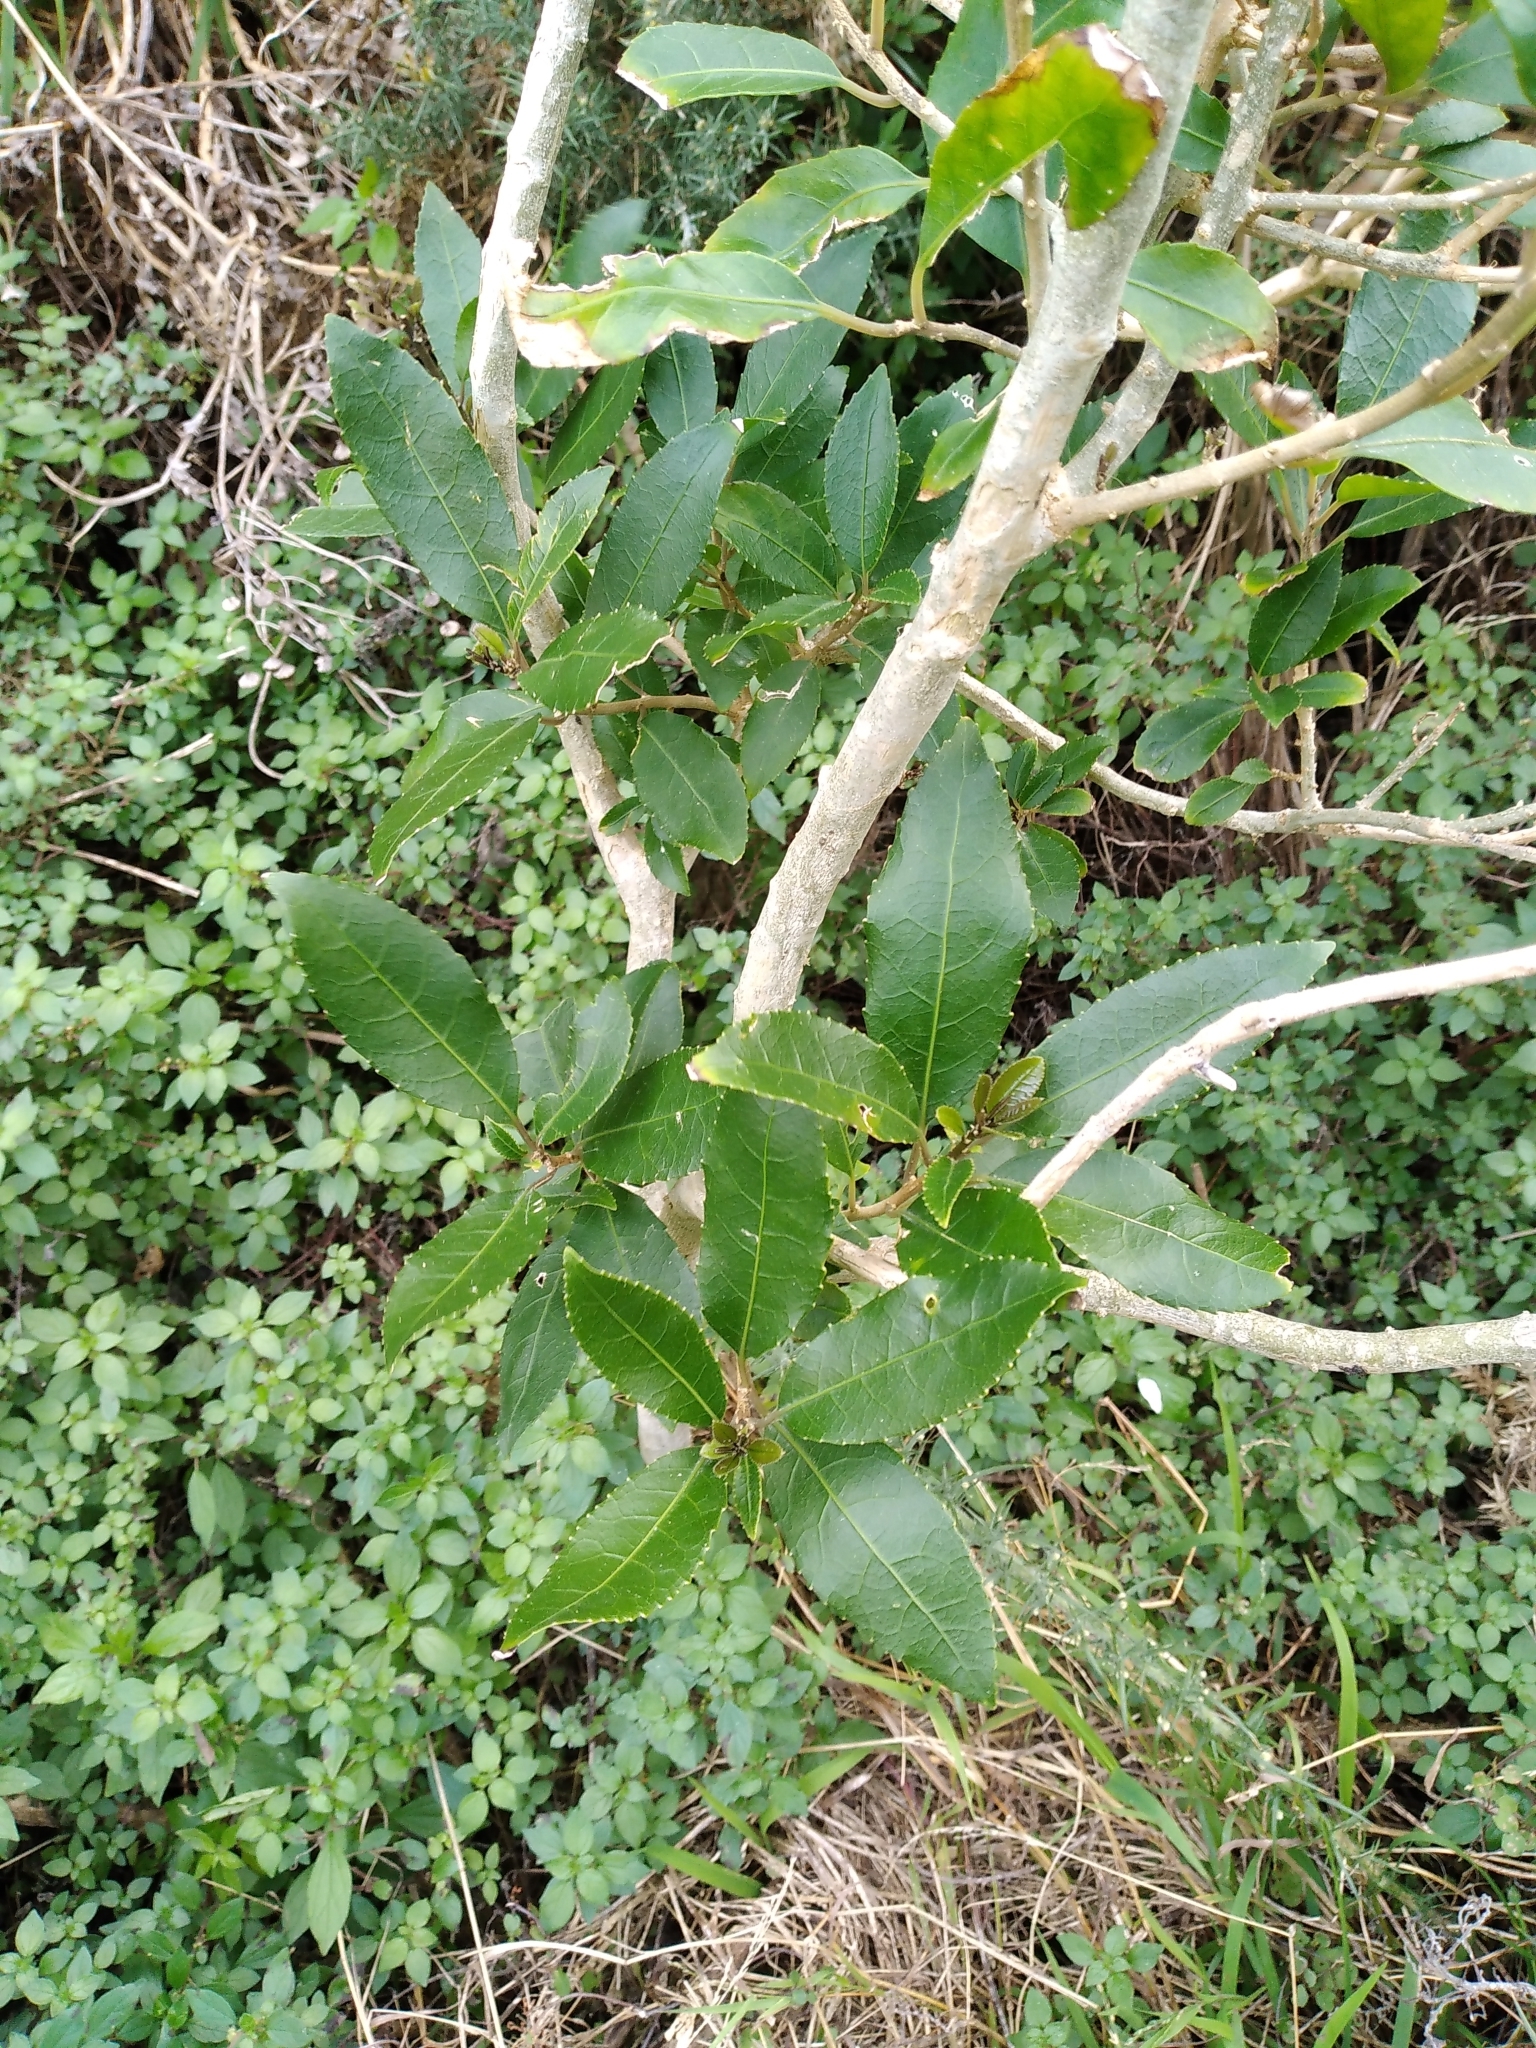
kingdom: Plantae
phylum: Tracheophyta
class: Magnoliopsida
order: Malpighiales
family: Violaceae
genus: Melicytus
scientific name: Melicytus ramiflorus
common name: Mahoe
